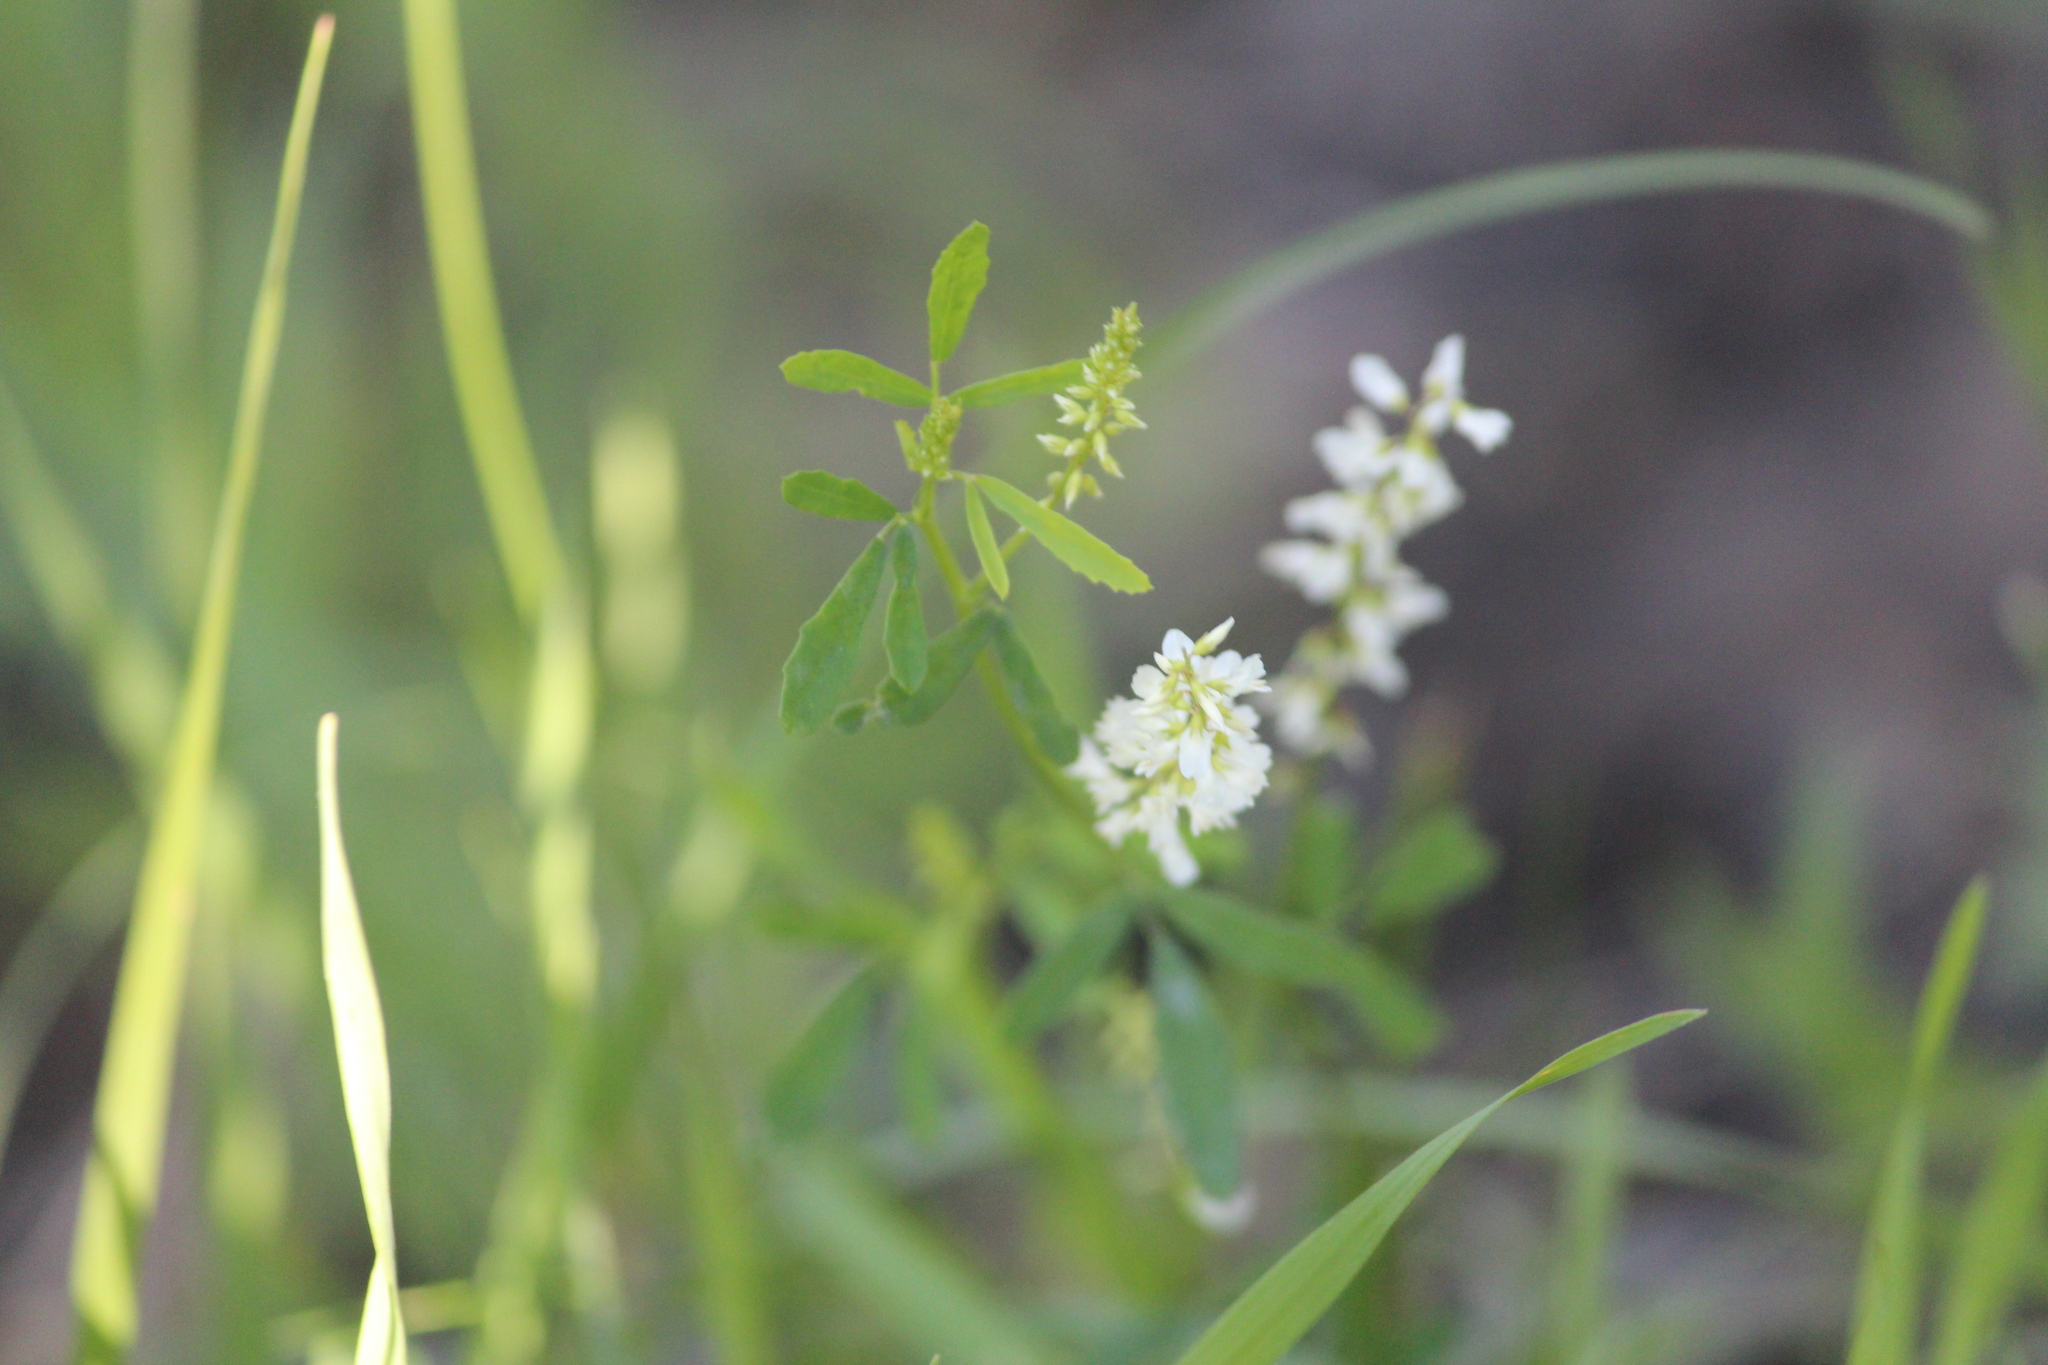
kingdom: Plantae
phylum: Tracheophyta
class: Magnoliopsida
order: Fabales
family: Fabaceae
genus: Melilotus
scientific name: Melilotus albus
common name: White melilot
